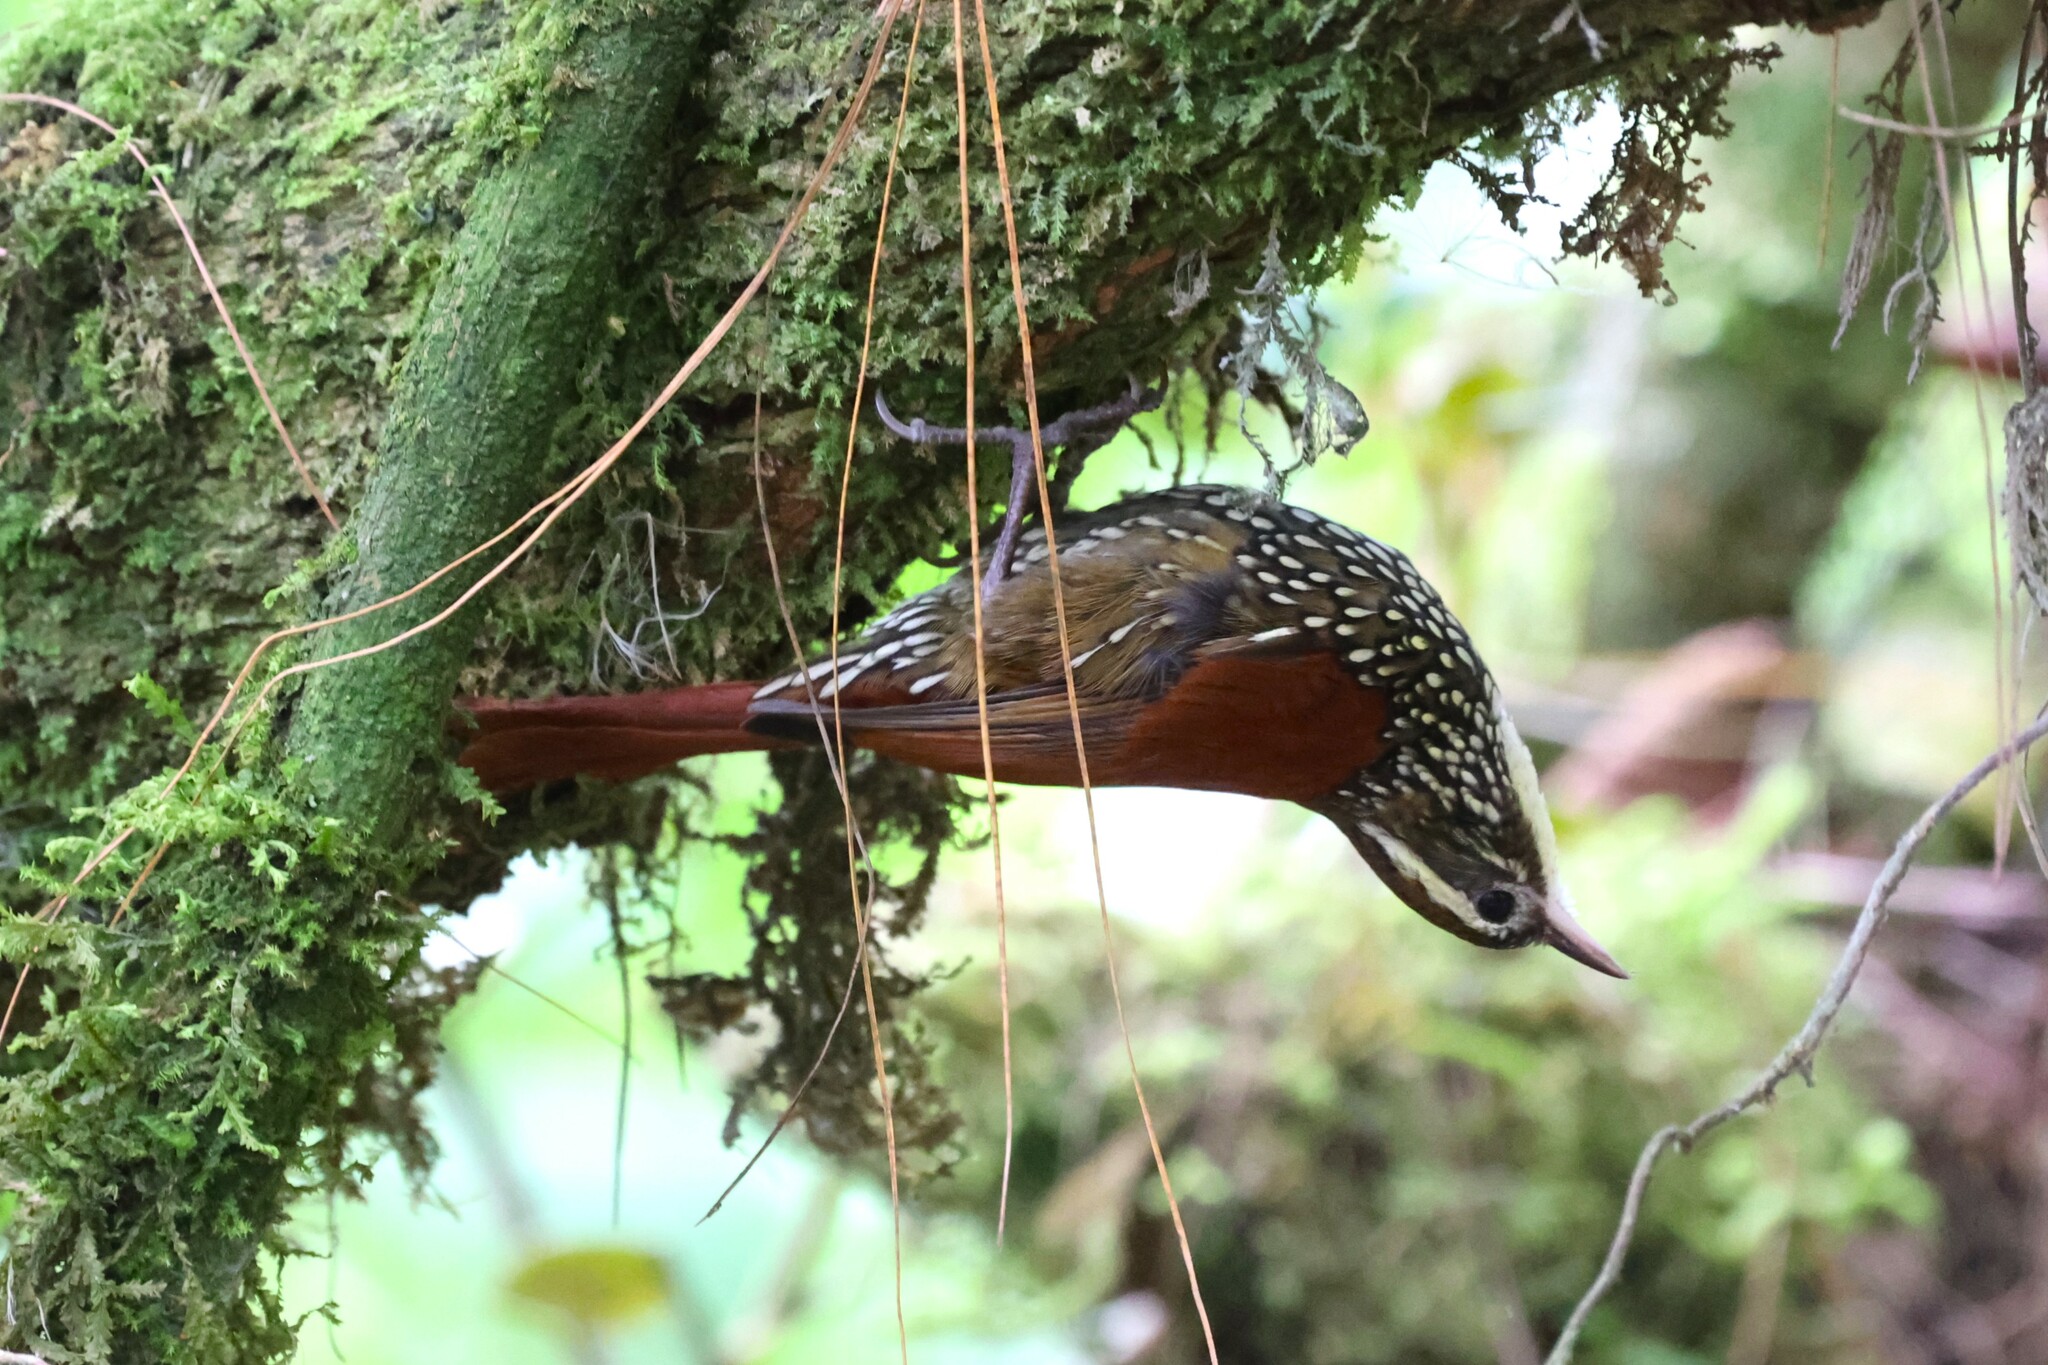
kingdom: Animalia
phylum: Chordata
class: Aves
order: Passeriformes
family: Furnariidae
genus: Margarornis
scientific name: Margarornis squamiger
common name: Pearled treerunner
